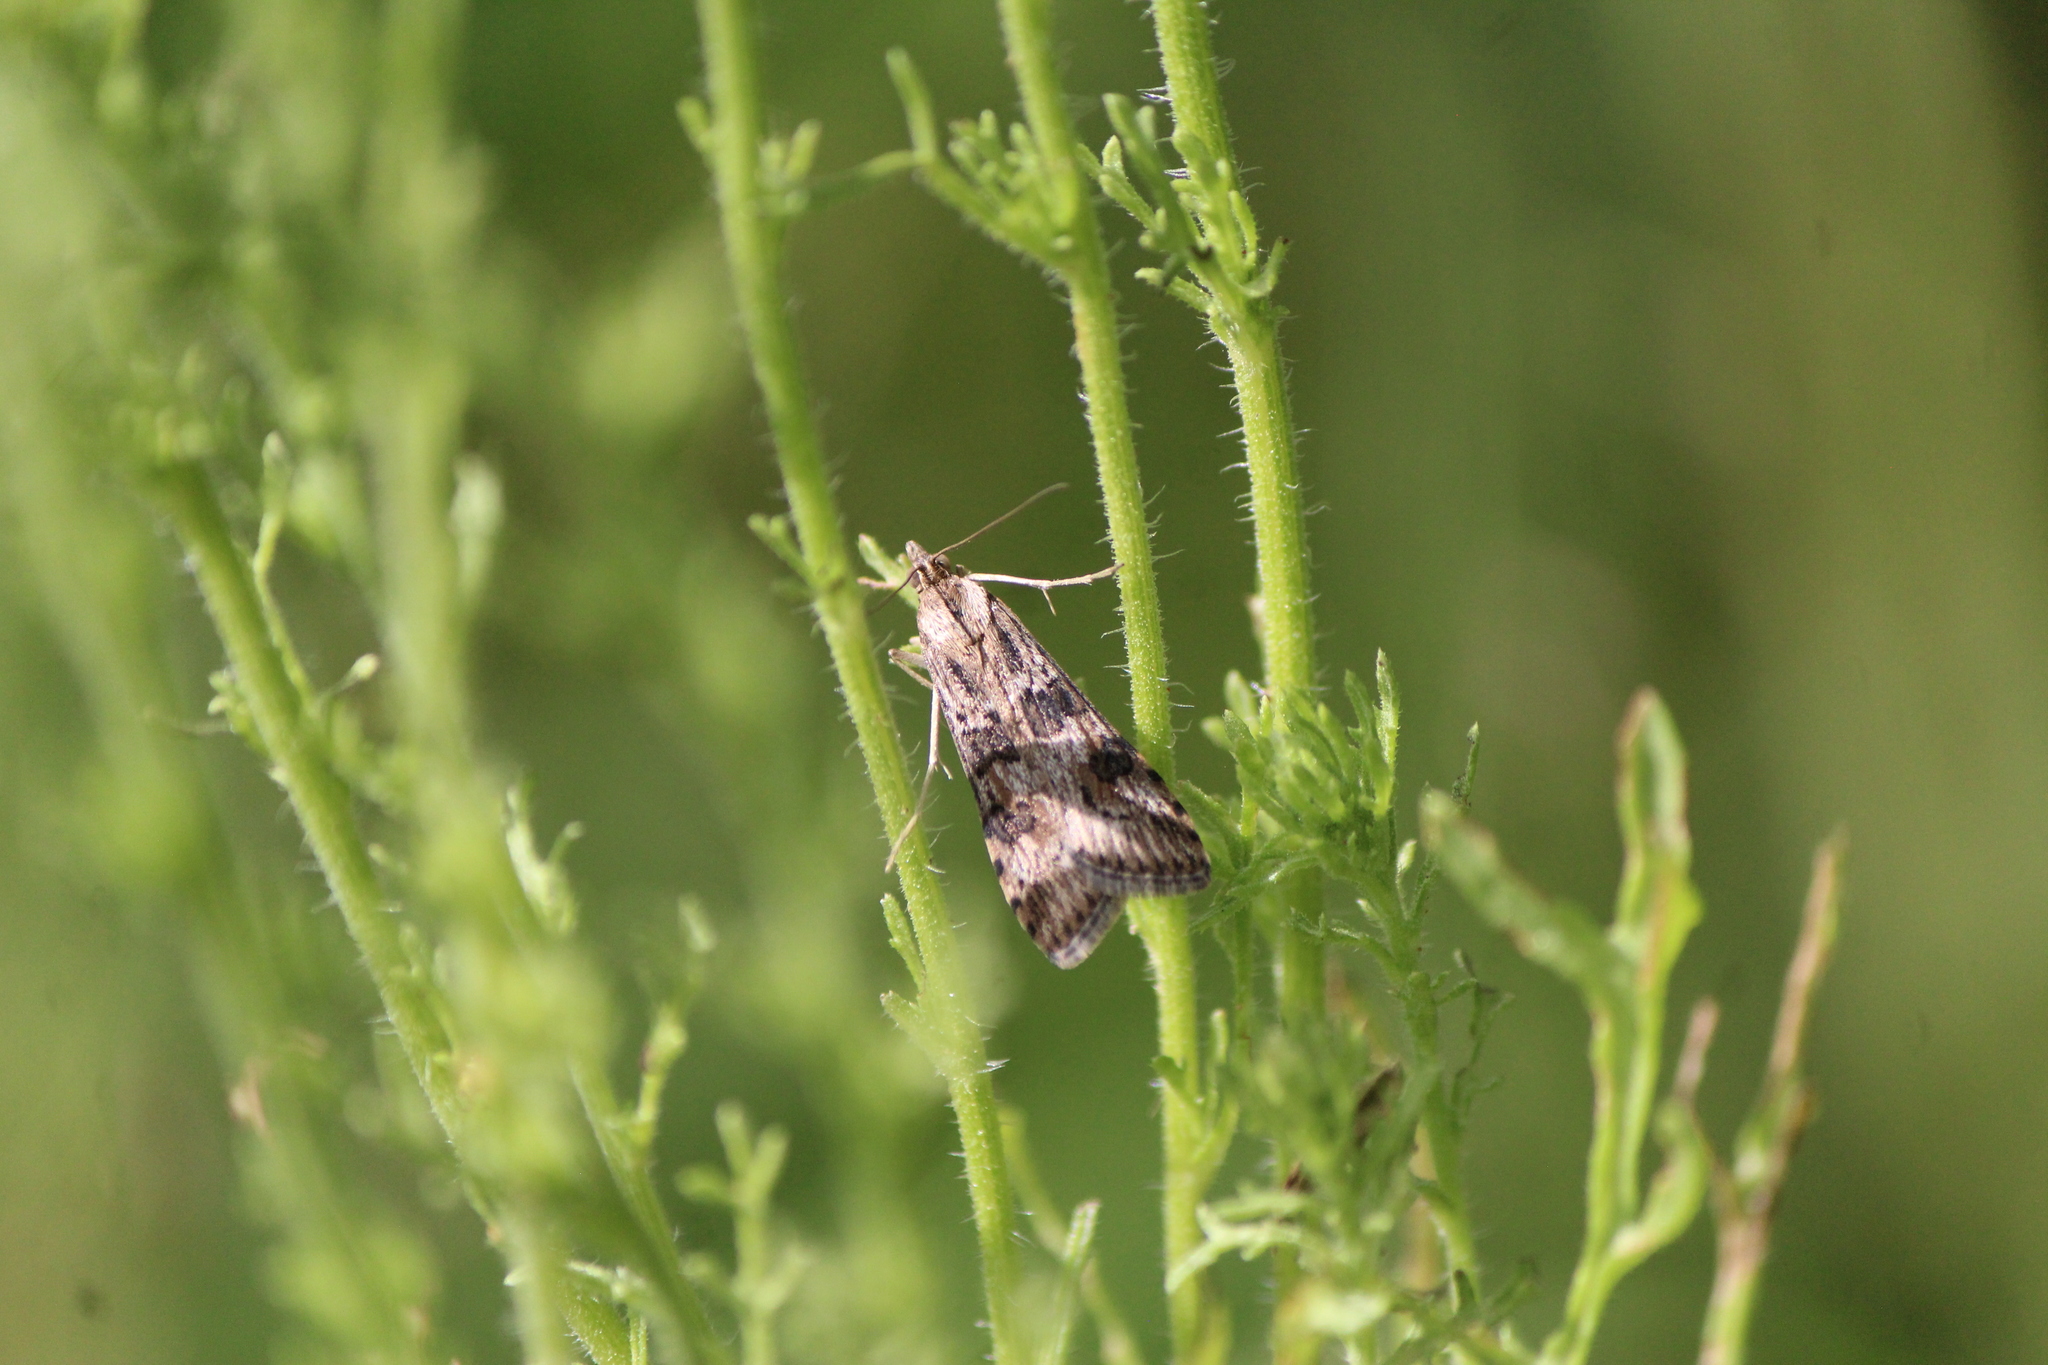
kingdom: Animalia
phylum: Arthropoda
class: Insecta
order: Lepidoptera
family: Crambidae
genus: Nomophila
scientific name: Nomophila nearctica
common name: American rush veneer
